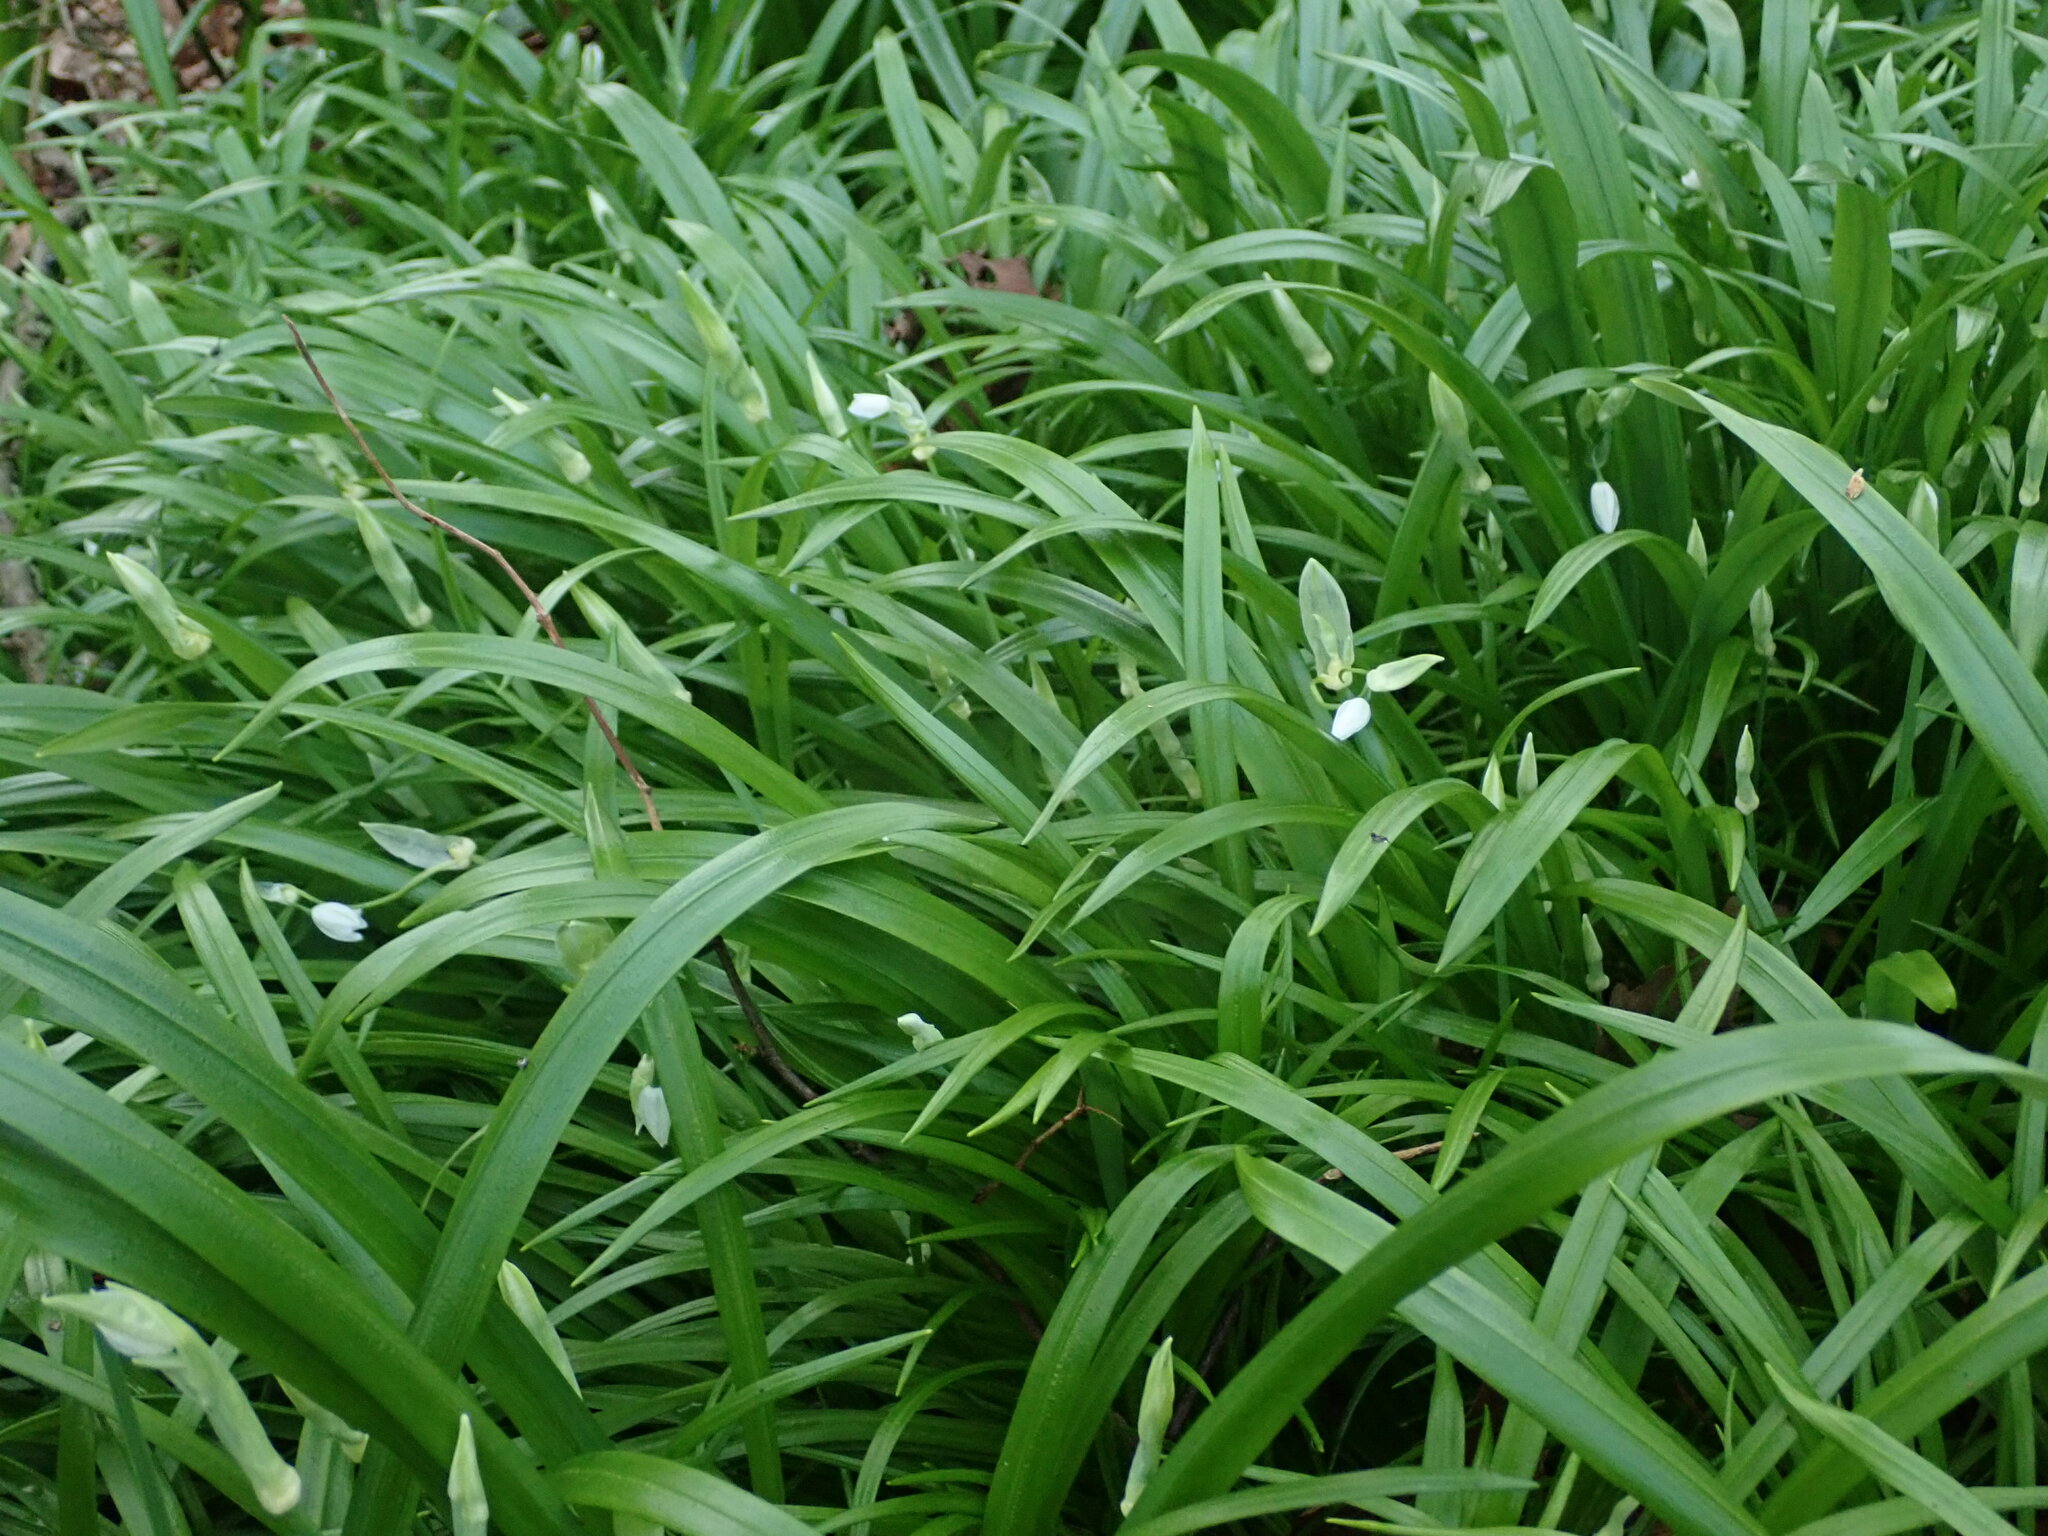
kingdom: Plantae
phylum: Tracheophyta
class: Liliopsida
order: Asparagales
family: Amaryllidaceae
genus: Allium
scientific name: Allium paradoxum
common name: Few-flowered garlic
